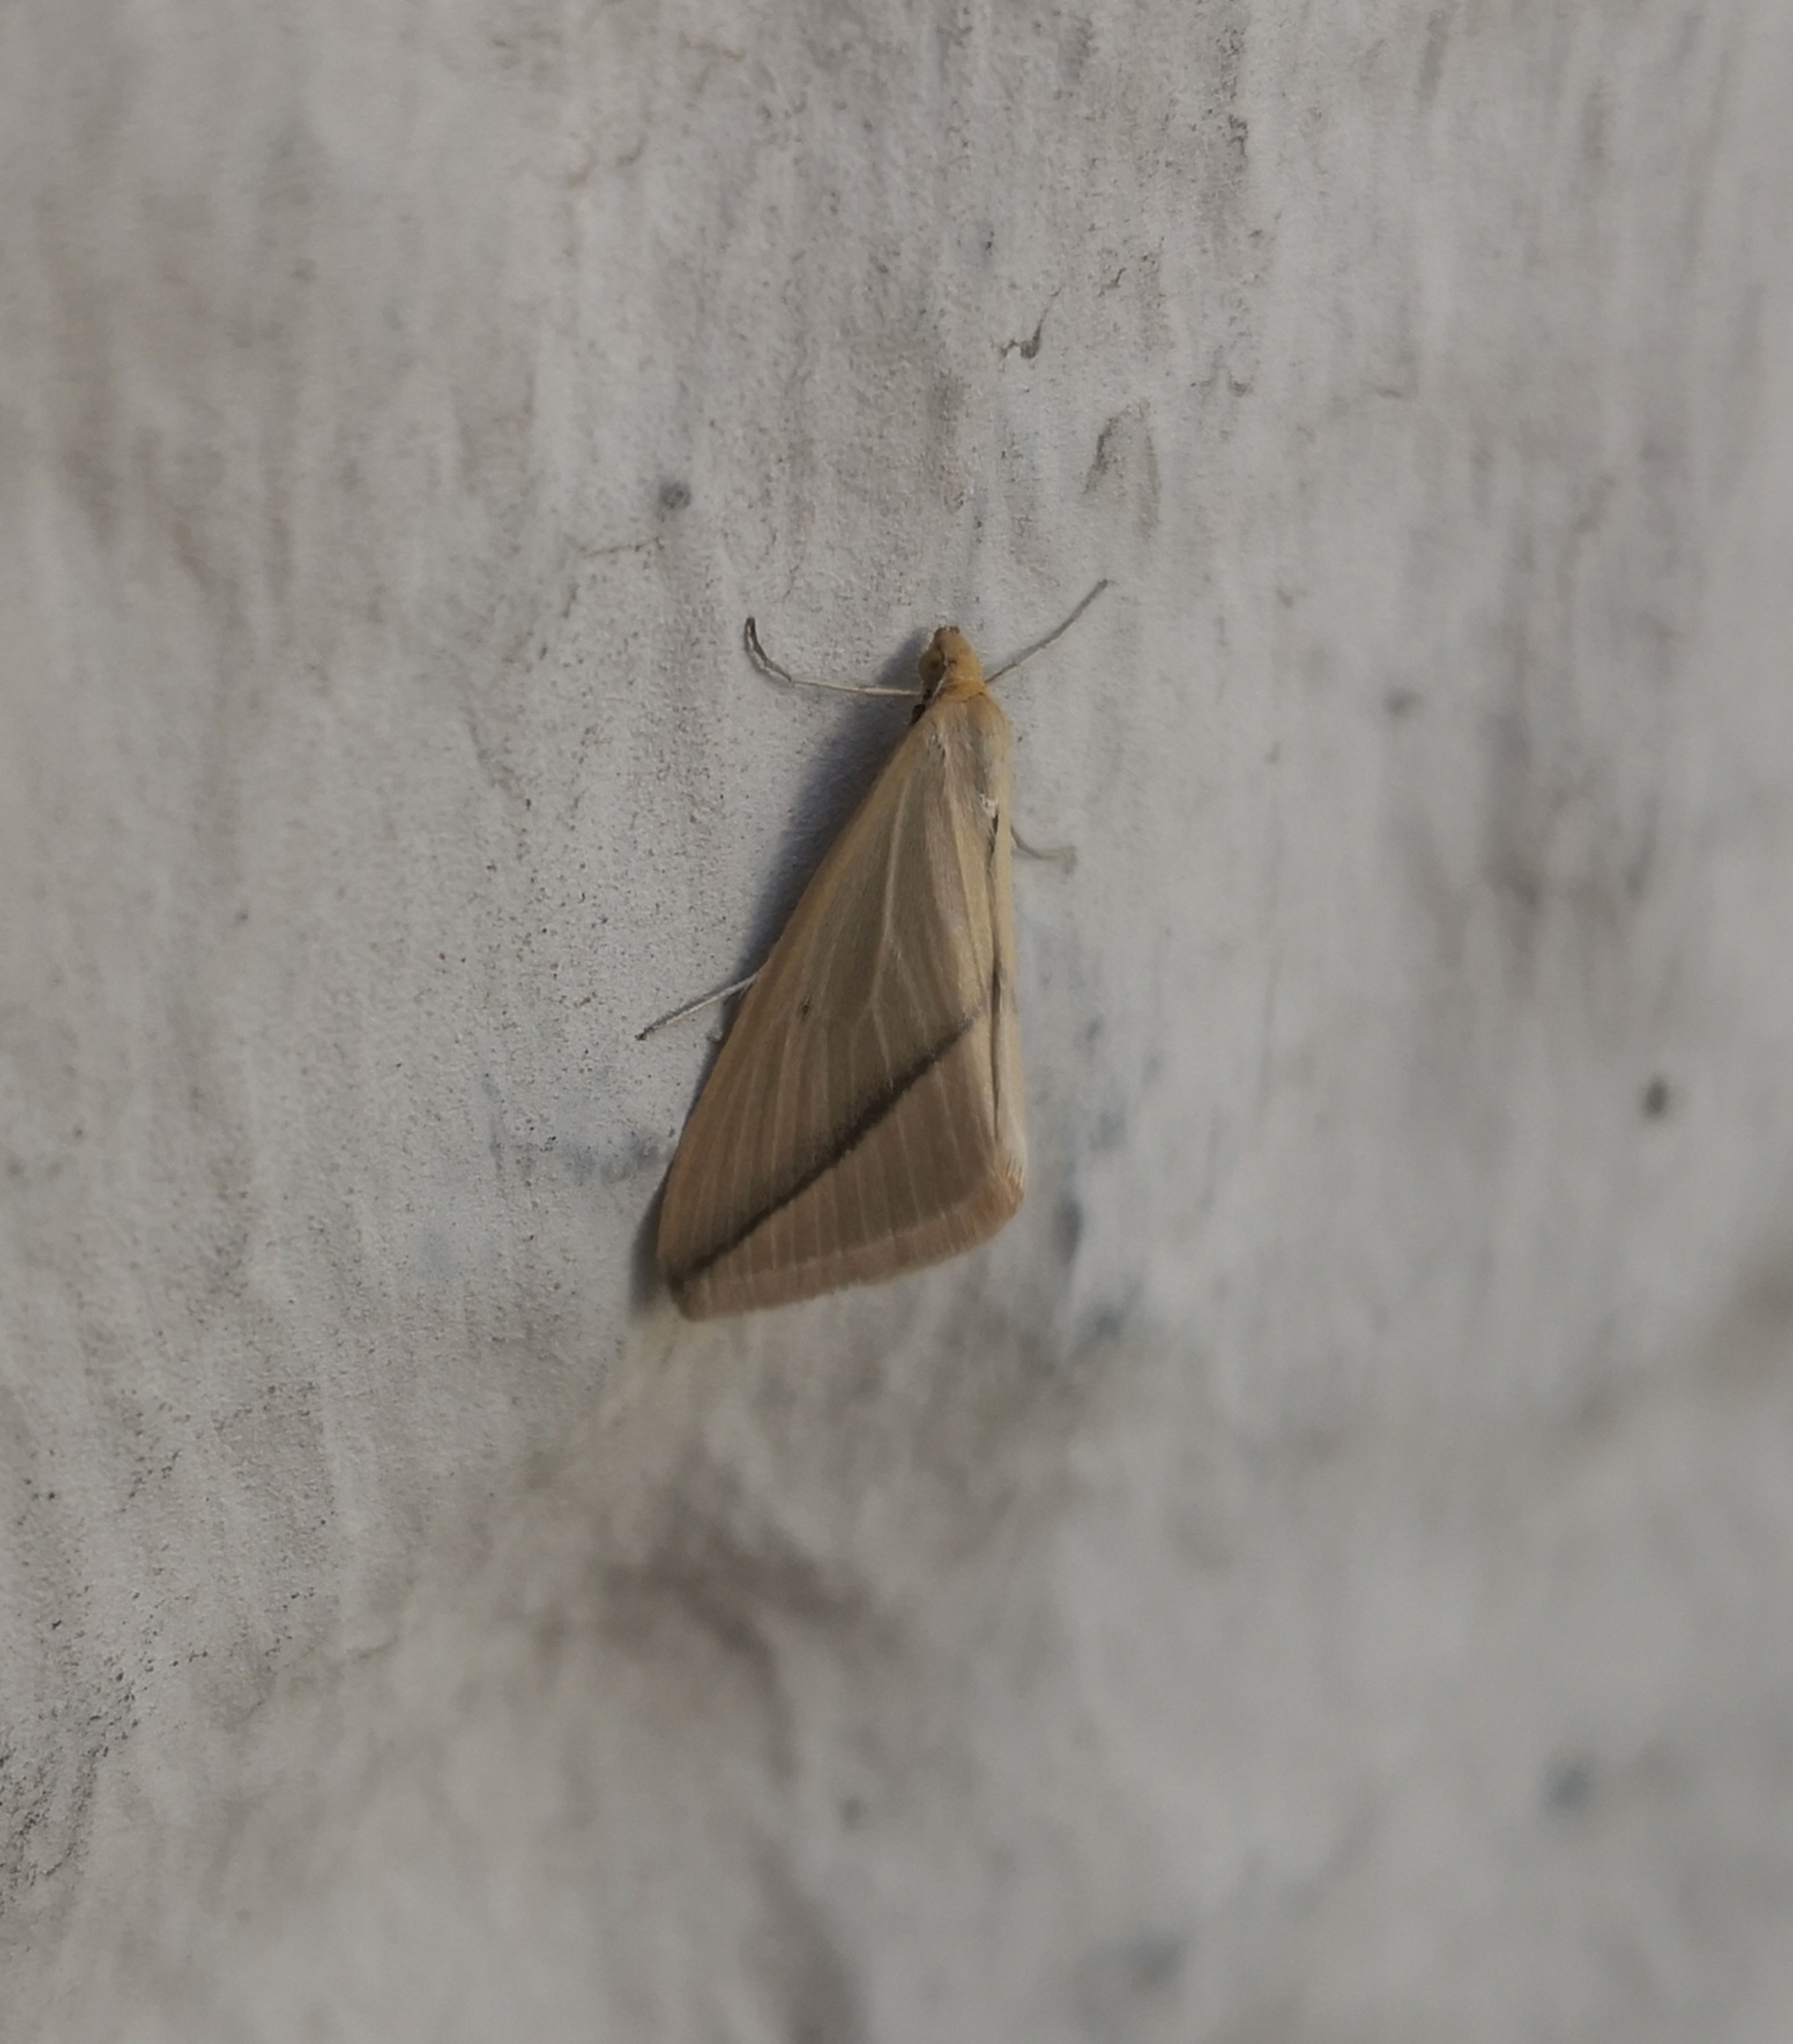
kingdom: Animalia
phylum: Arthropoda
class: Insecta
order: Lepidoptera
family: Geometridae
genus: Rhodometra
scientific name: Rhodometra sacraria
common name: Vestal
